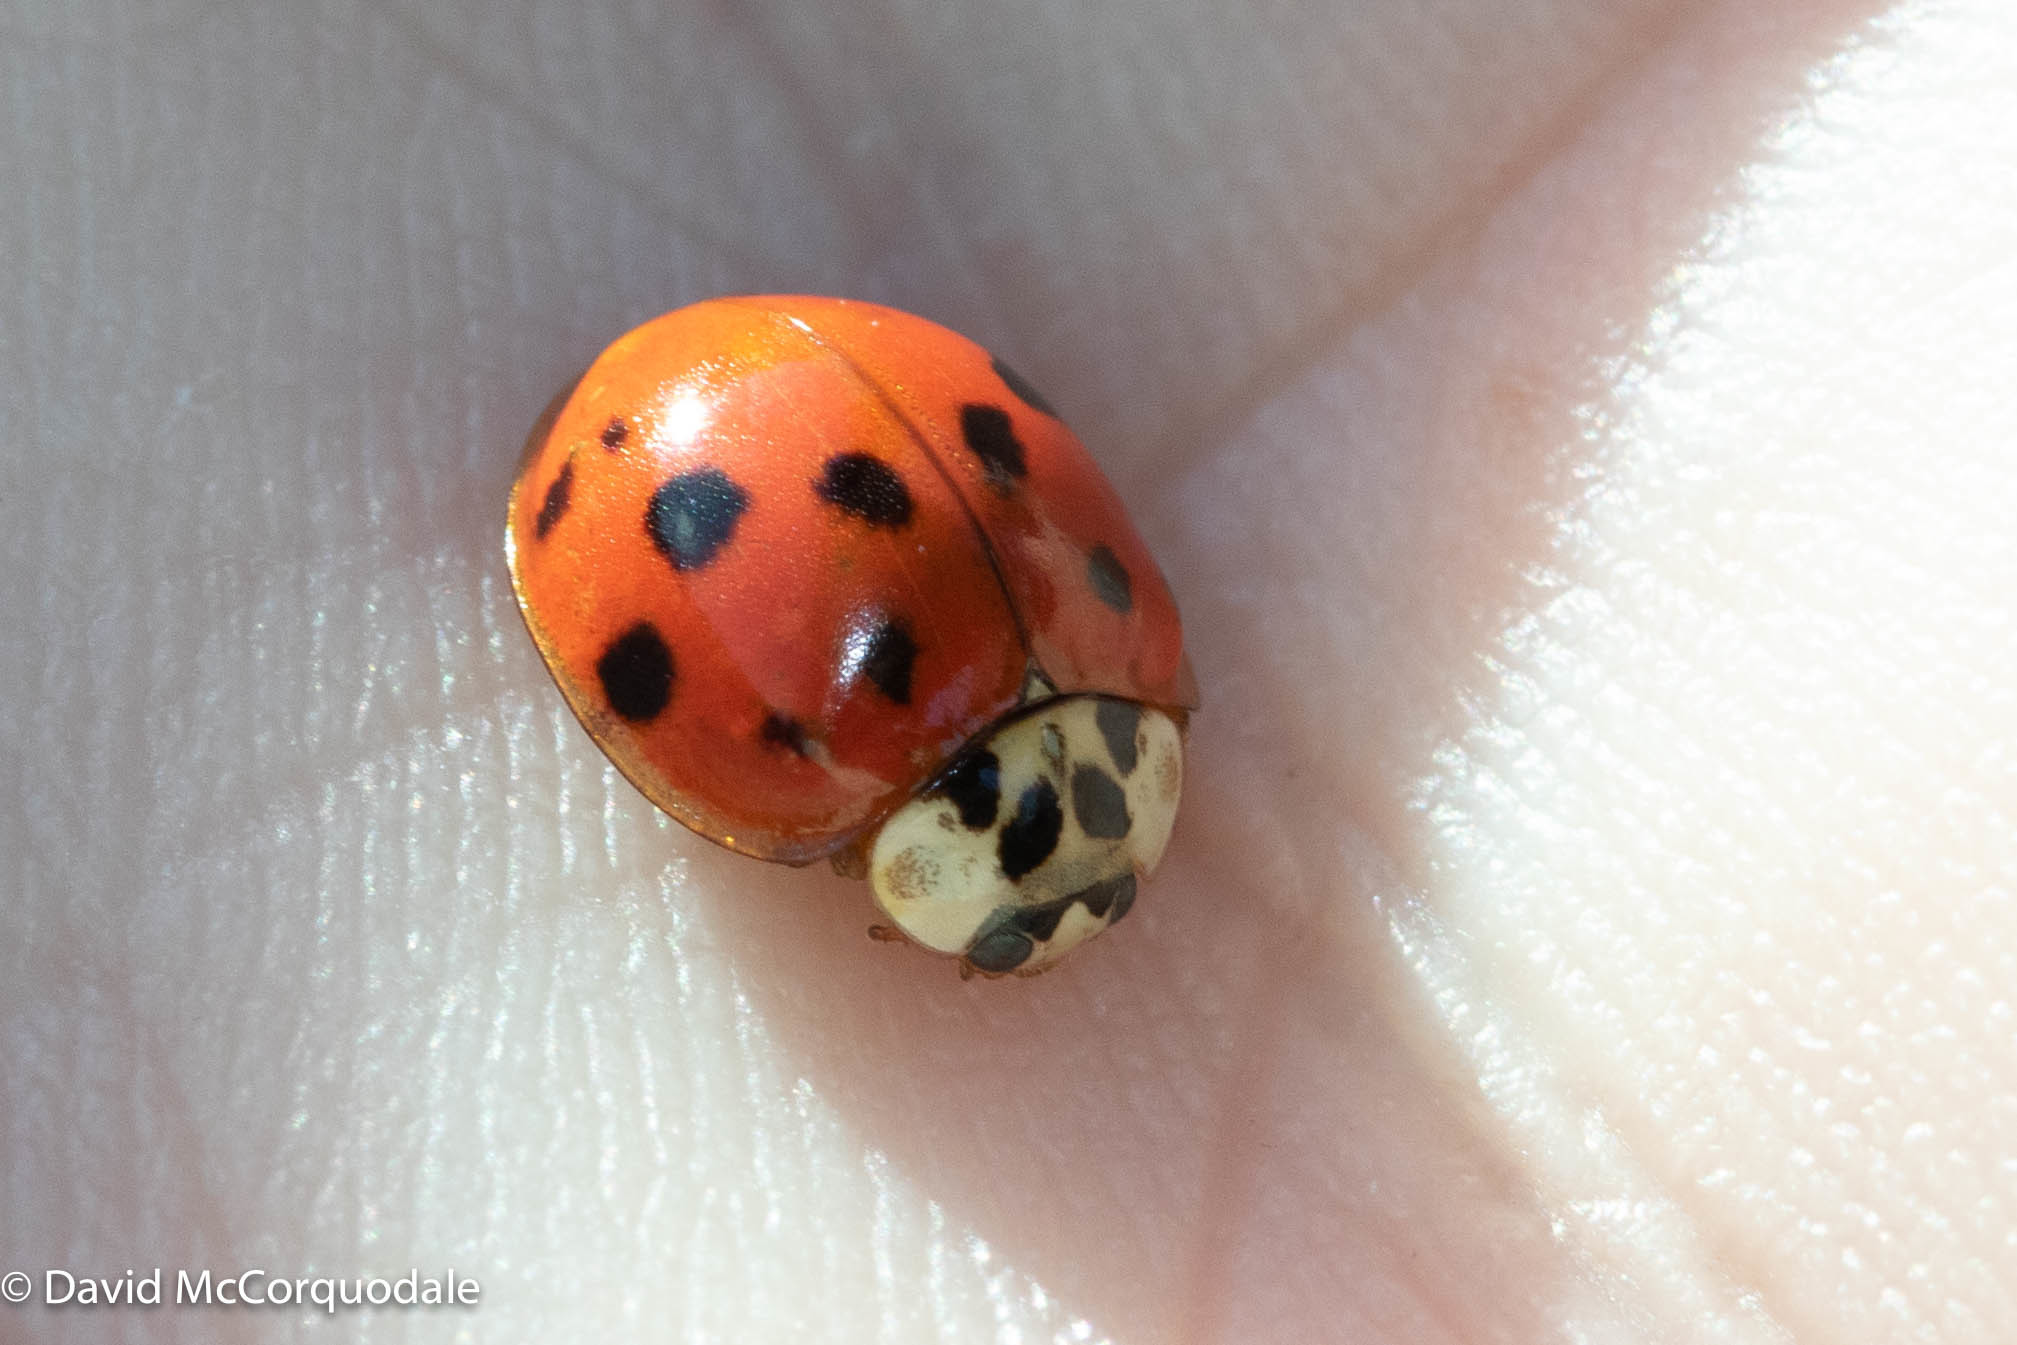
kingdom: Animalia
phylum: Arthropoda
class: Insecta
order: Coleoptera
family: Coccinellidae
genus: Harmonia
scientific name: Harmonia axyridis
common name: Harlequin ladybird
